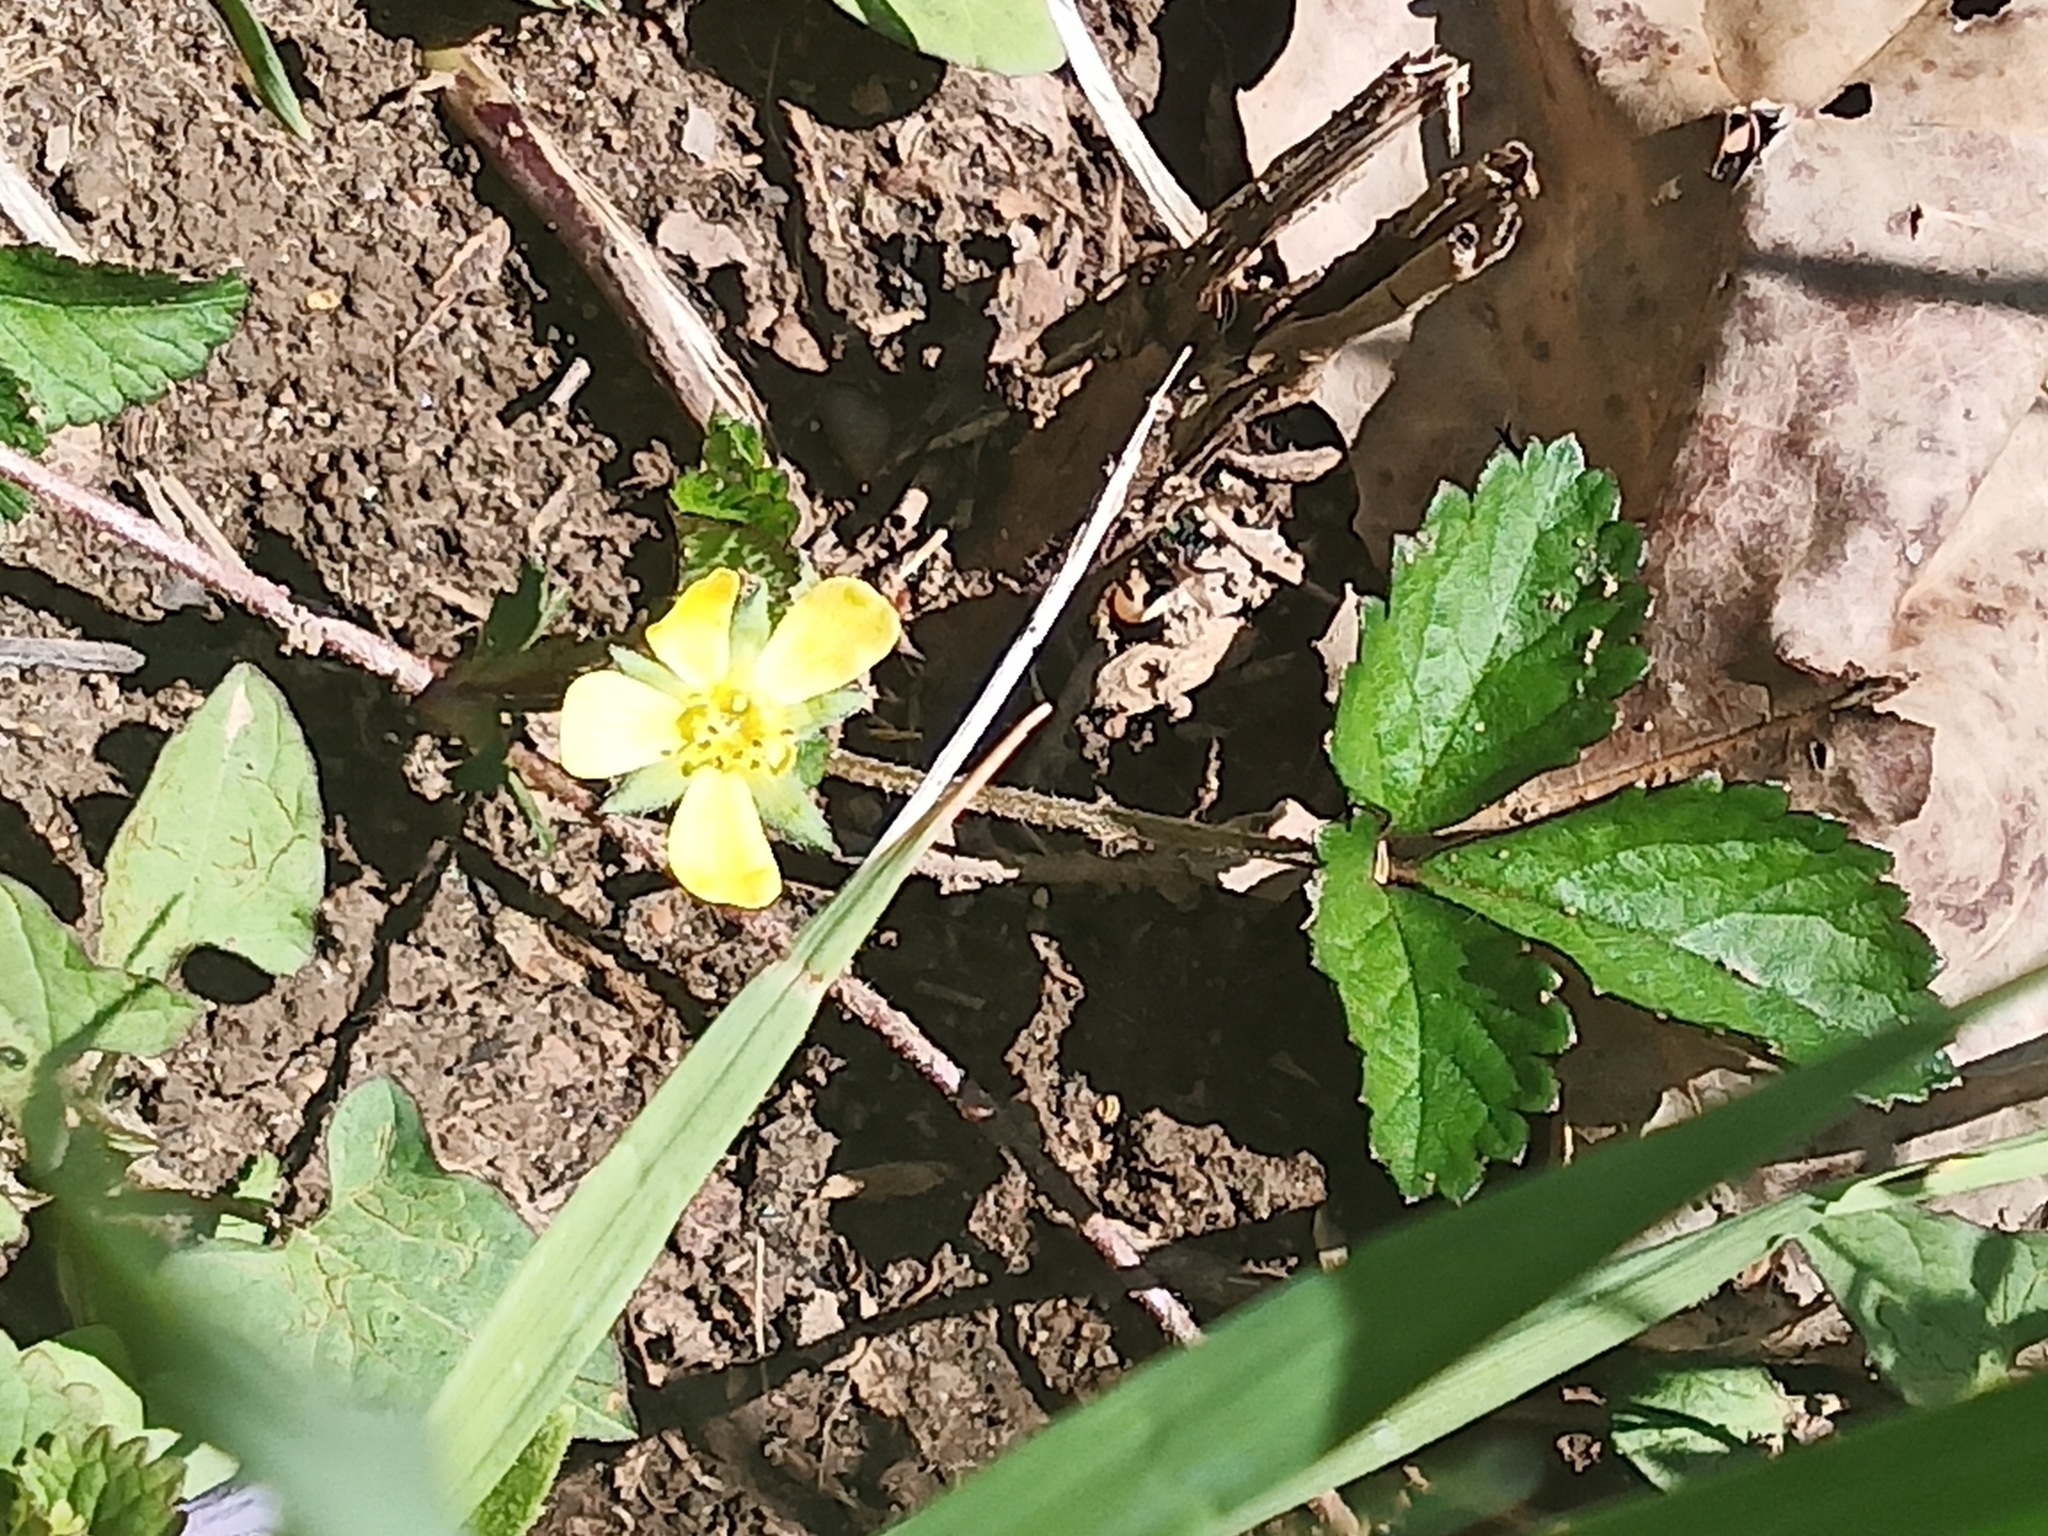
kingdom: Plantae
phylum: Tracheophyta
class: Magnoliopsida
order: Rosales
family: Rosaceae
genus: Potentilla
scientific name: Potentilla indica
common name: Yellow-flowered strawberry
